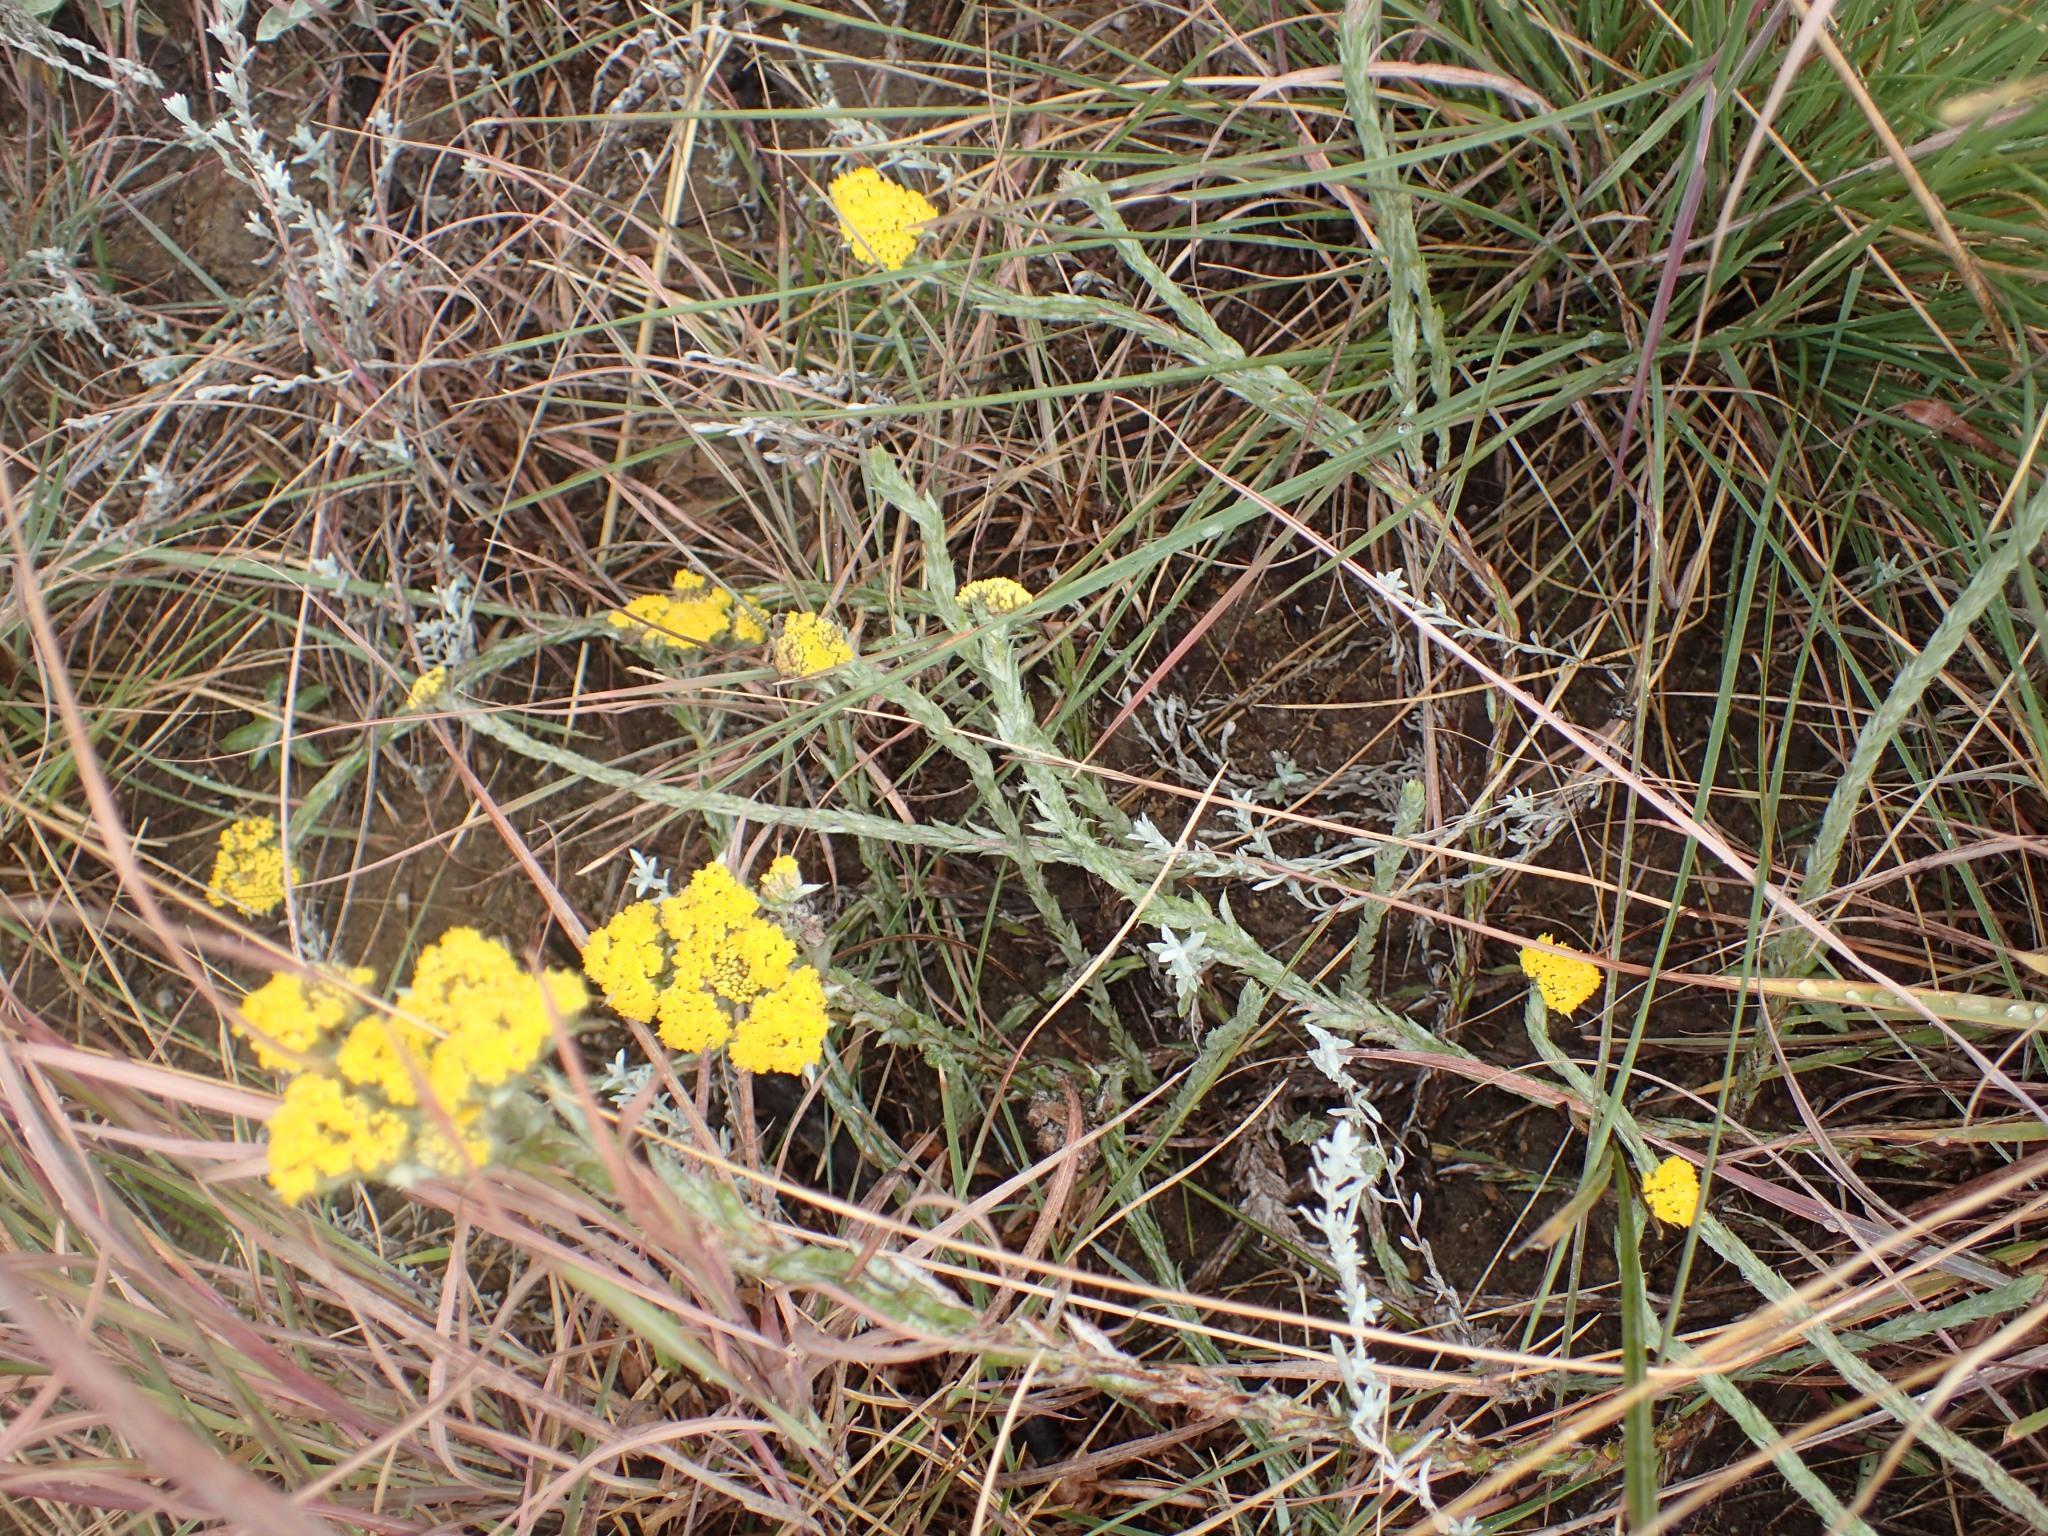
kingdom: Plantae
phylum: Tracheophyta
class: Magnoliopsida
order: Asterales
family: Asteraceae
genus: Helichrysum
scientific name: Helichrysum glomeratum
